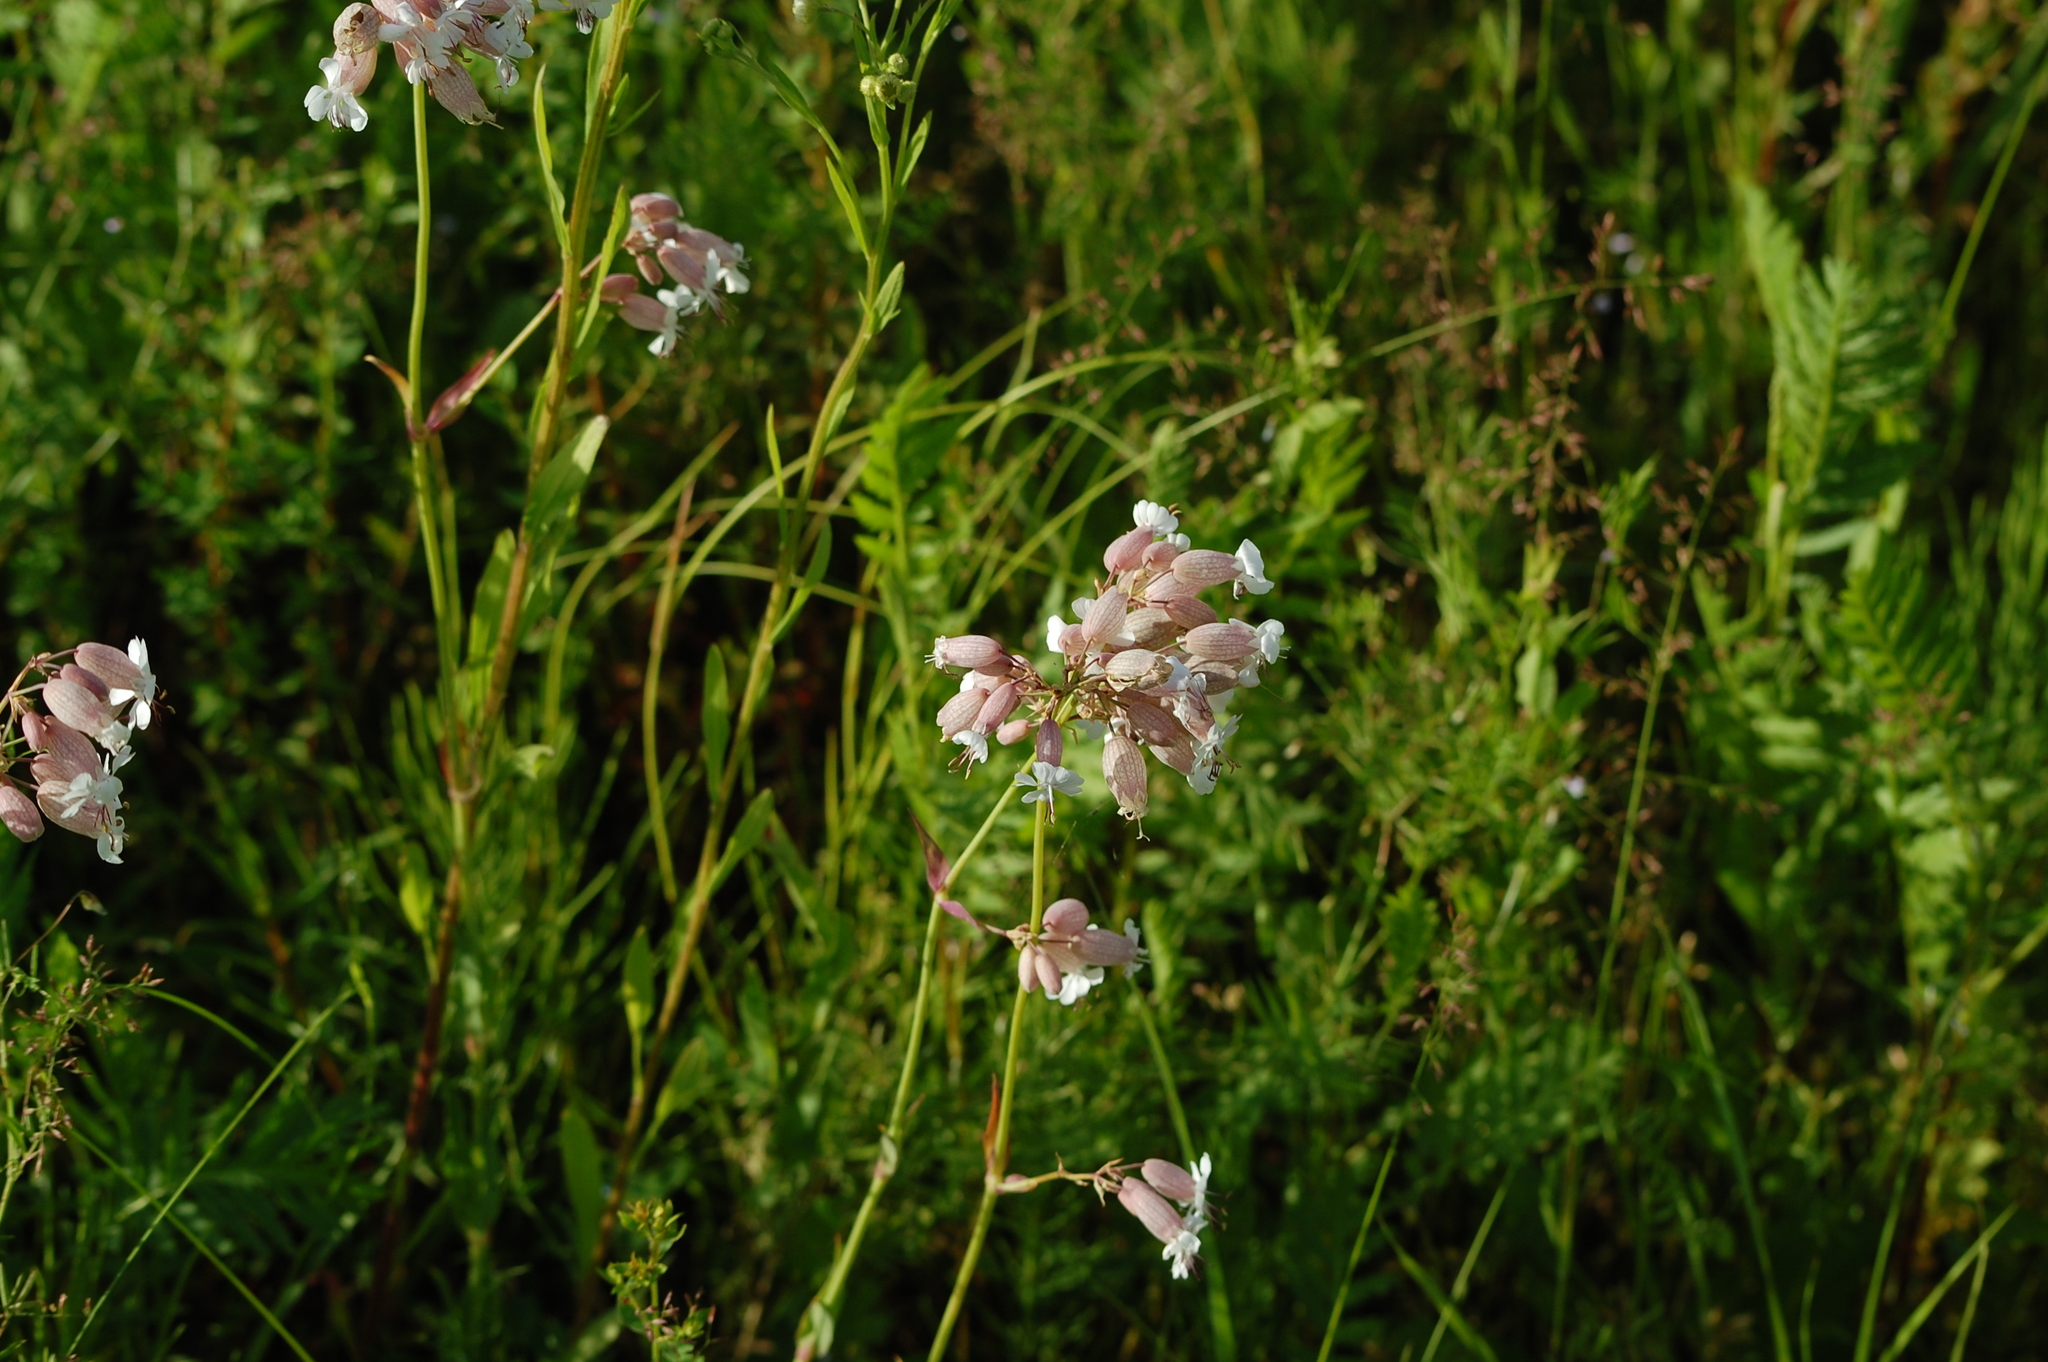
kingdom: Plantae
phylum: Tracheophyta
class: Magnoliopsida
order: Caryophyllales
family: Caryophyllaceae
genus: Silene
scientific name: Silene vulgaris
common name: Bladder campion
